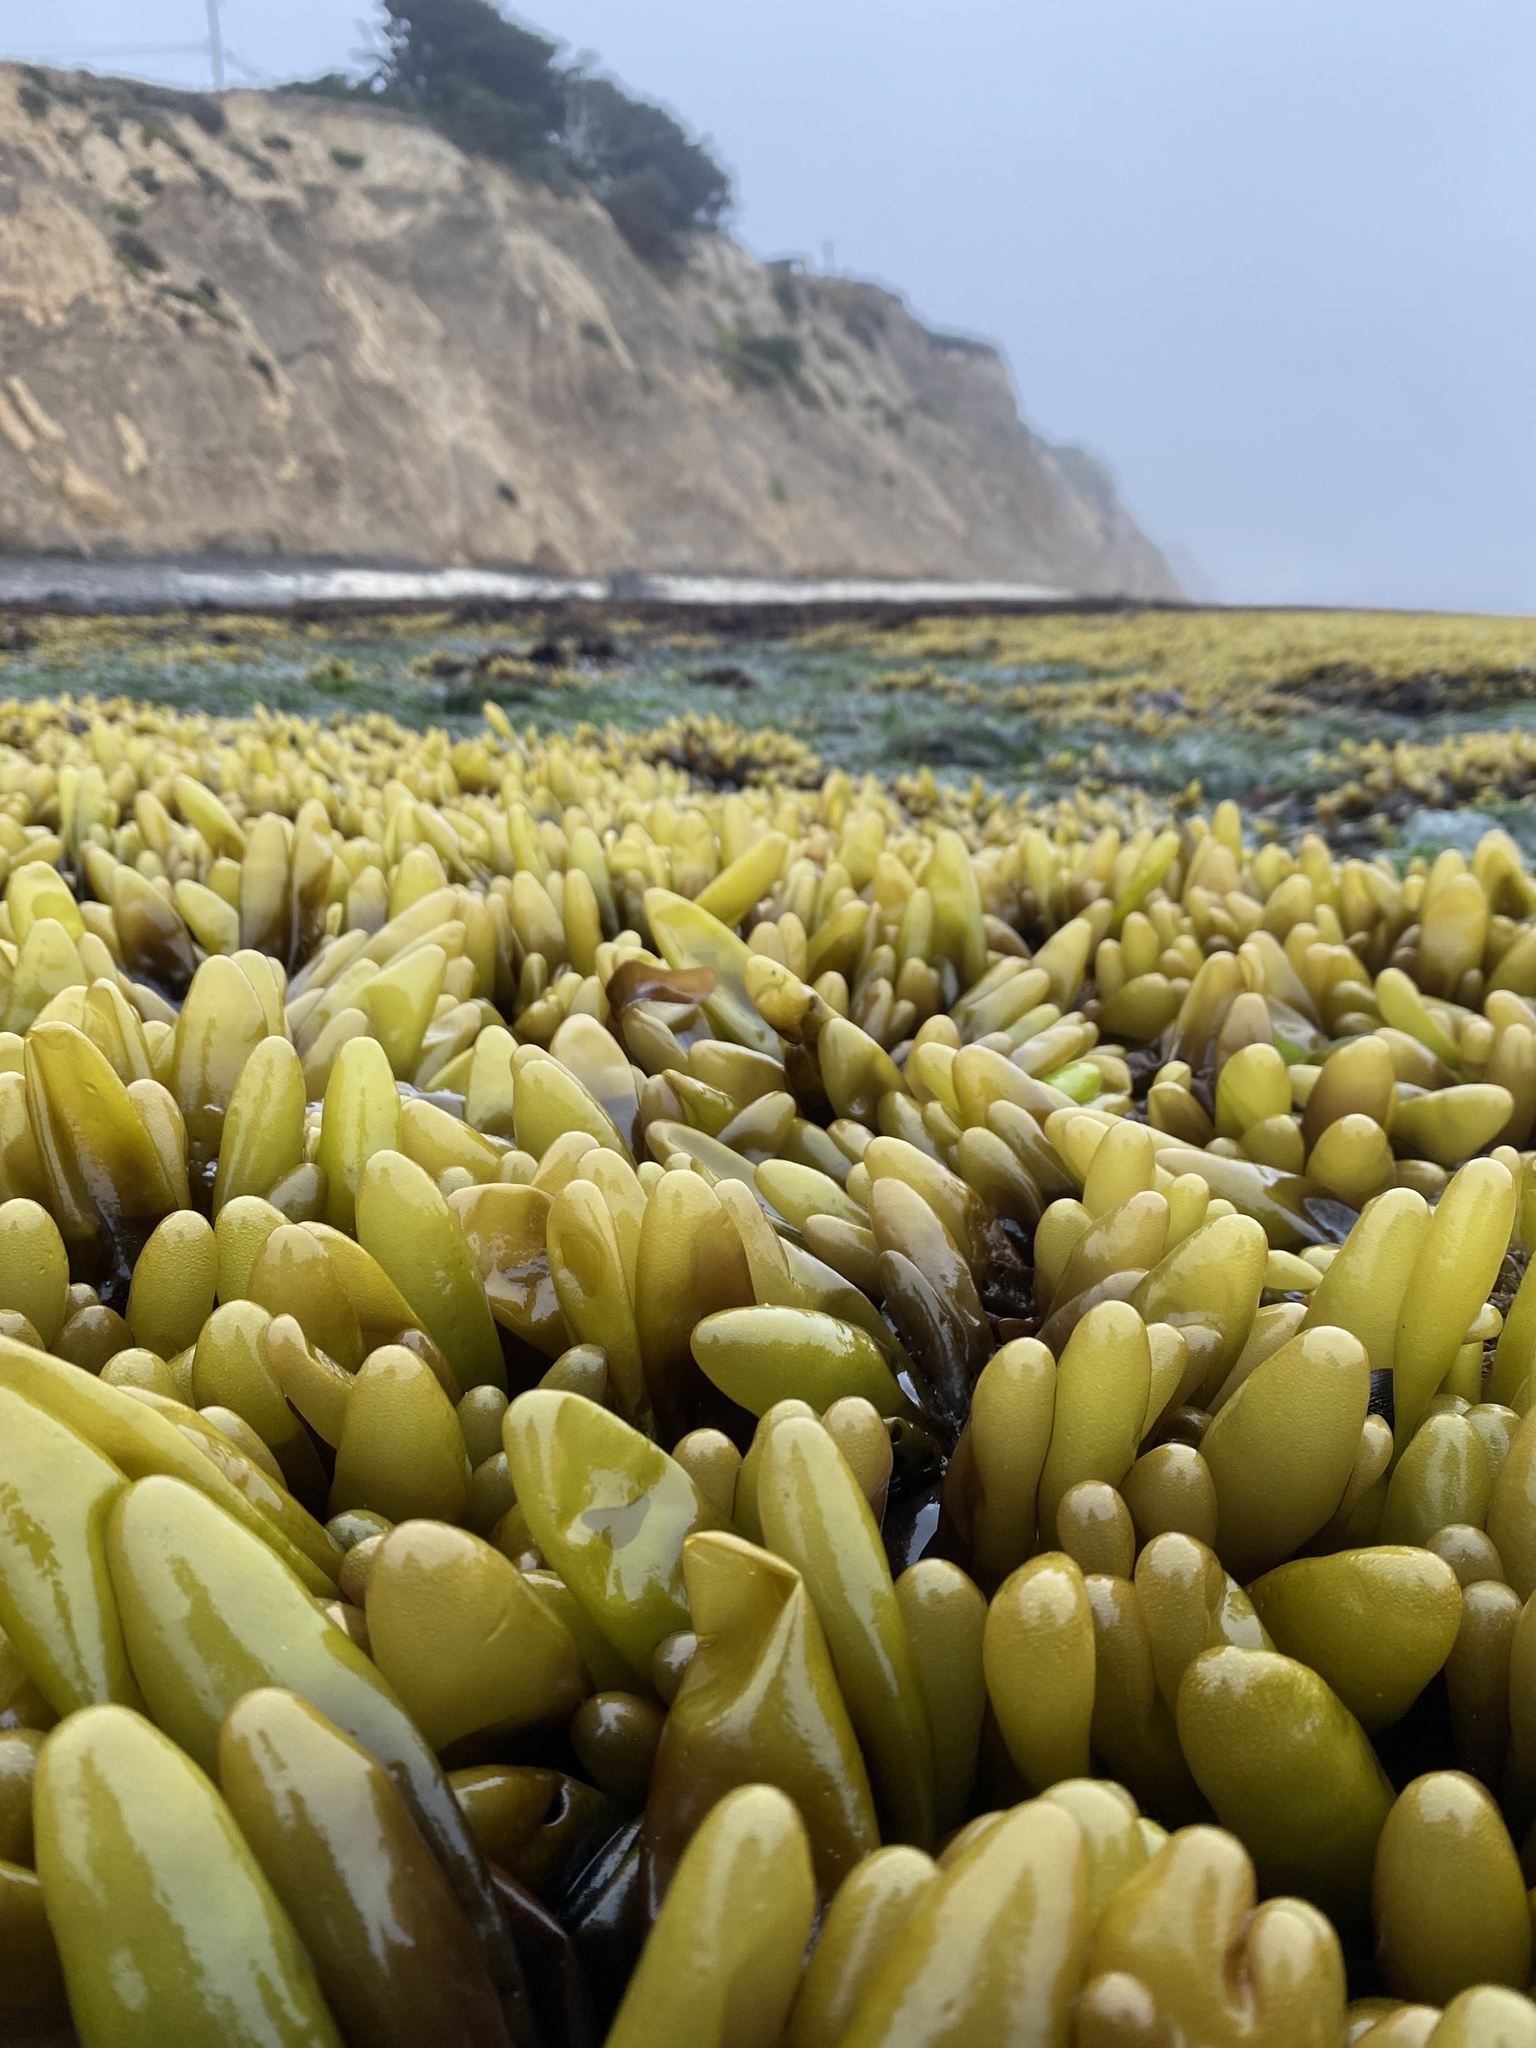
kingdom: Plantae
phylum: Rhodophyta
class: Florideophyceae
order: Palmariales
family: Palmariaceae
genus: Halosaccion
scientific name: Halosaccion glandiforme
